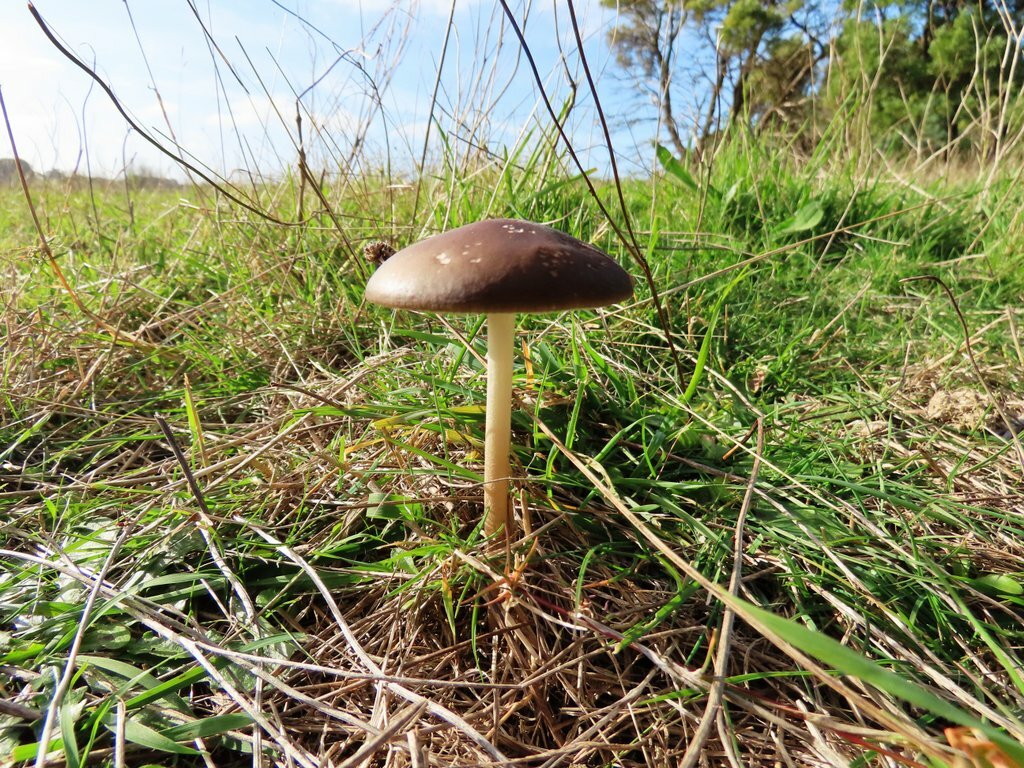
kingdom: Fungi
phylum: Basidiomycota
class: Agaricomycetes
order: Agaricales
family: Physalacriaceae
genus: Hymenopellis
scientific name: Hymenopellis gigaspora
